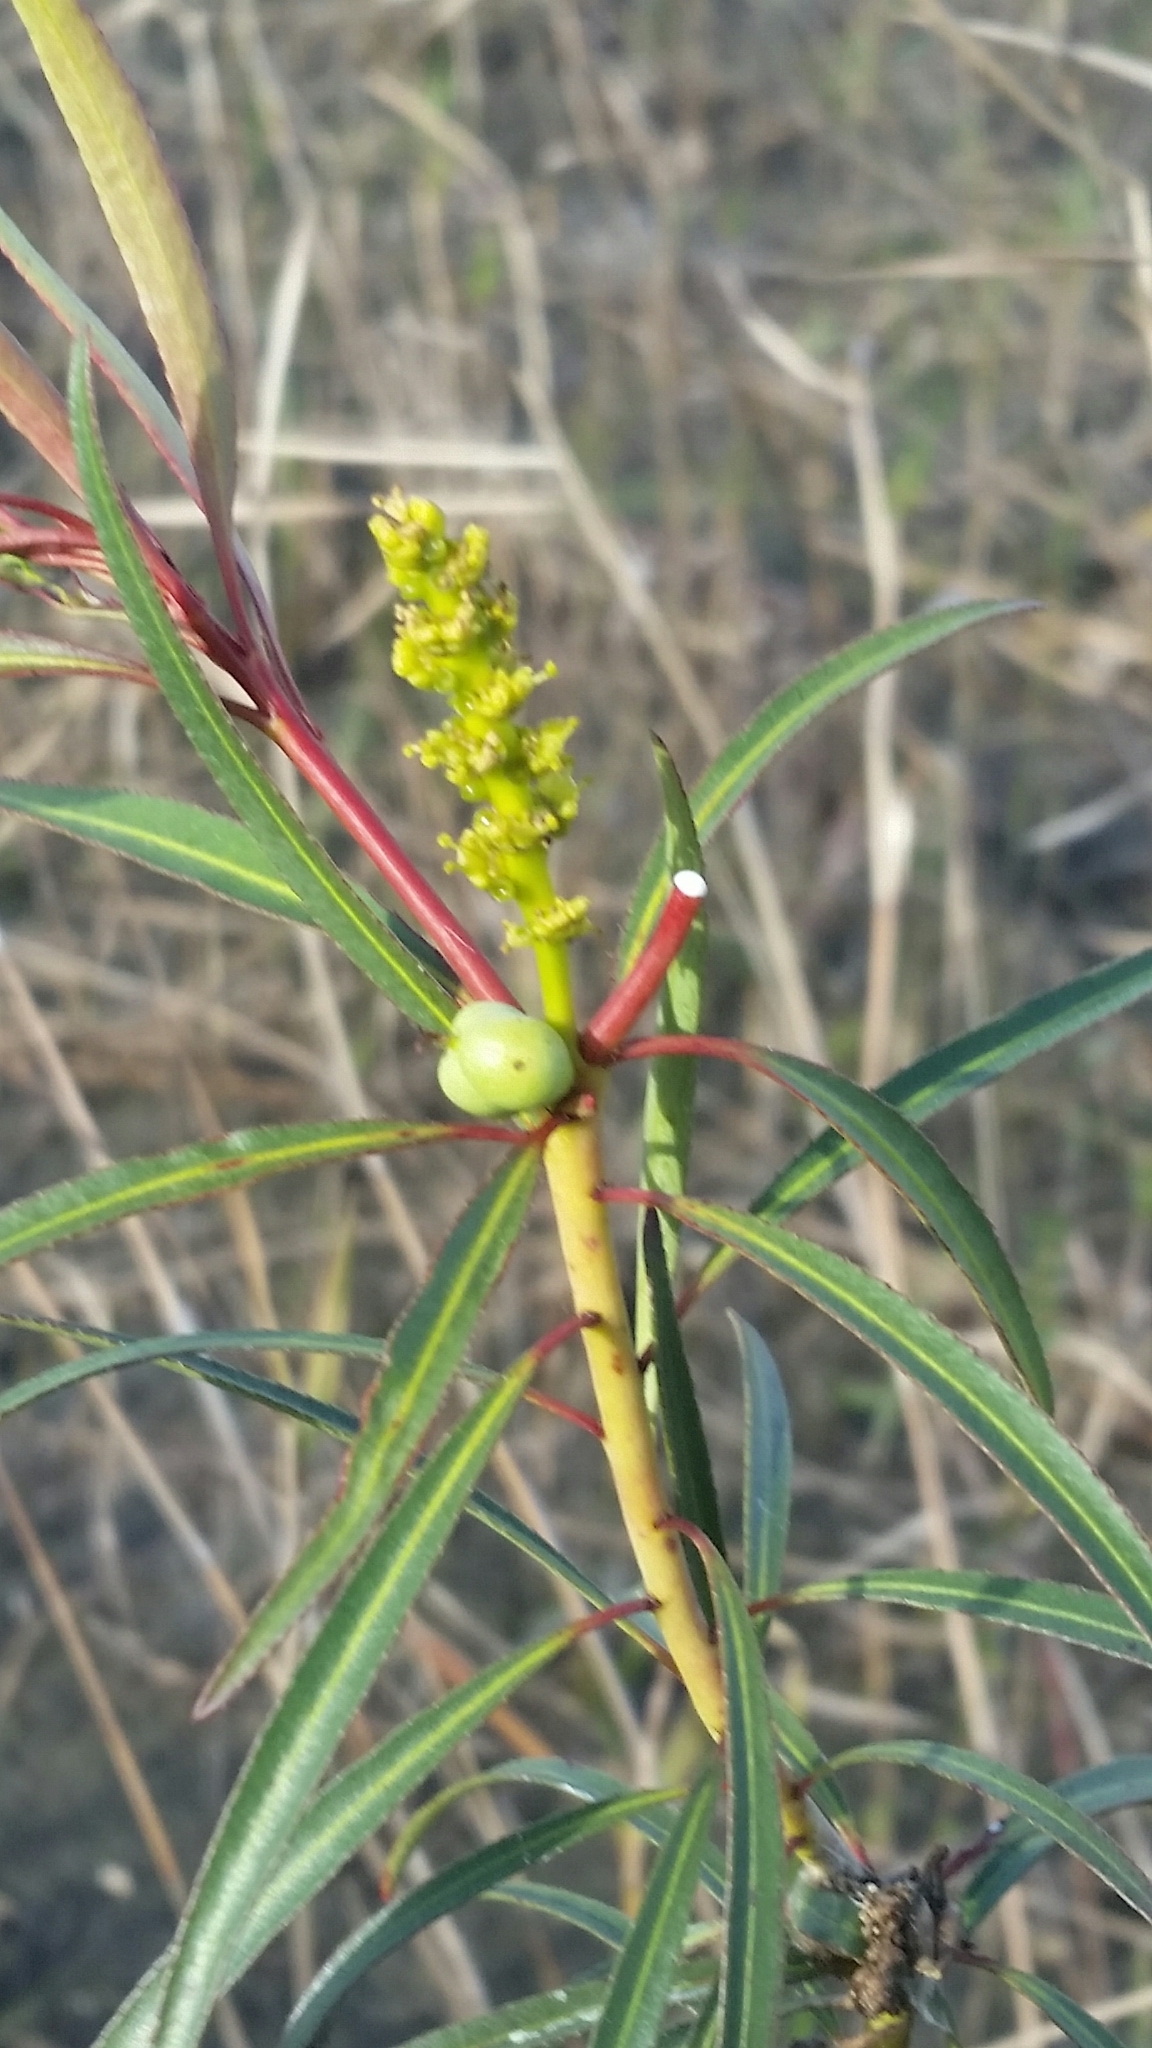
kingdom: Plantae
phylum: Tracheophyta
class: Magnoliopsida
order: Malpighiales
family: Euphorbiaceae
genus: Stillingia
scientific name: Stillingia aquatica
